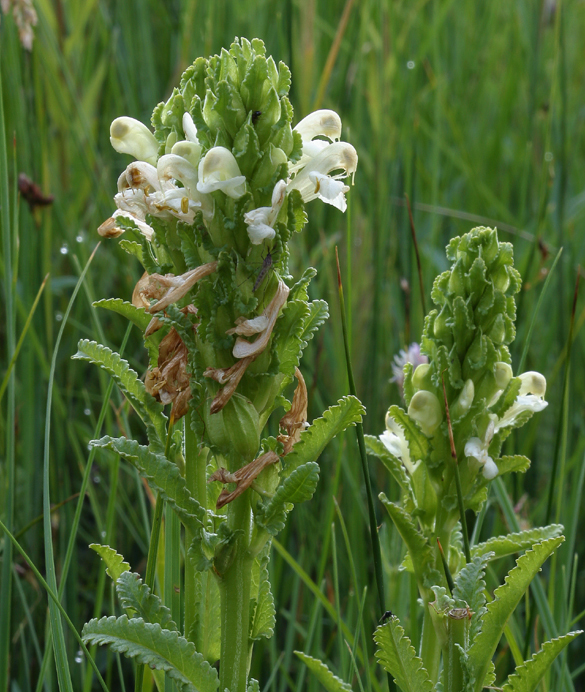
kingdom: Plantae
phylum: Tracheophyta
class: Magnoliopsida
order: Lamiales
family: Orobanchaceae
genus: Pedicularis
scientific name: Pedicularis crenulata
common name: Meadow lousewort
